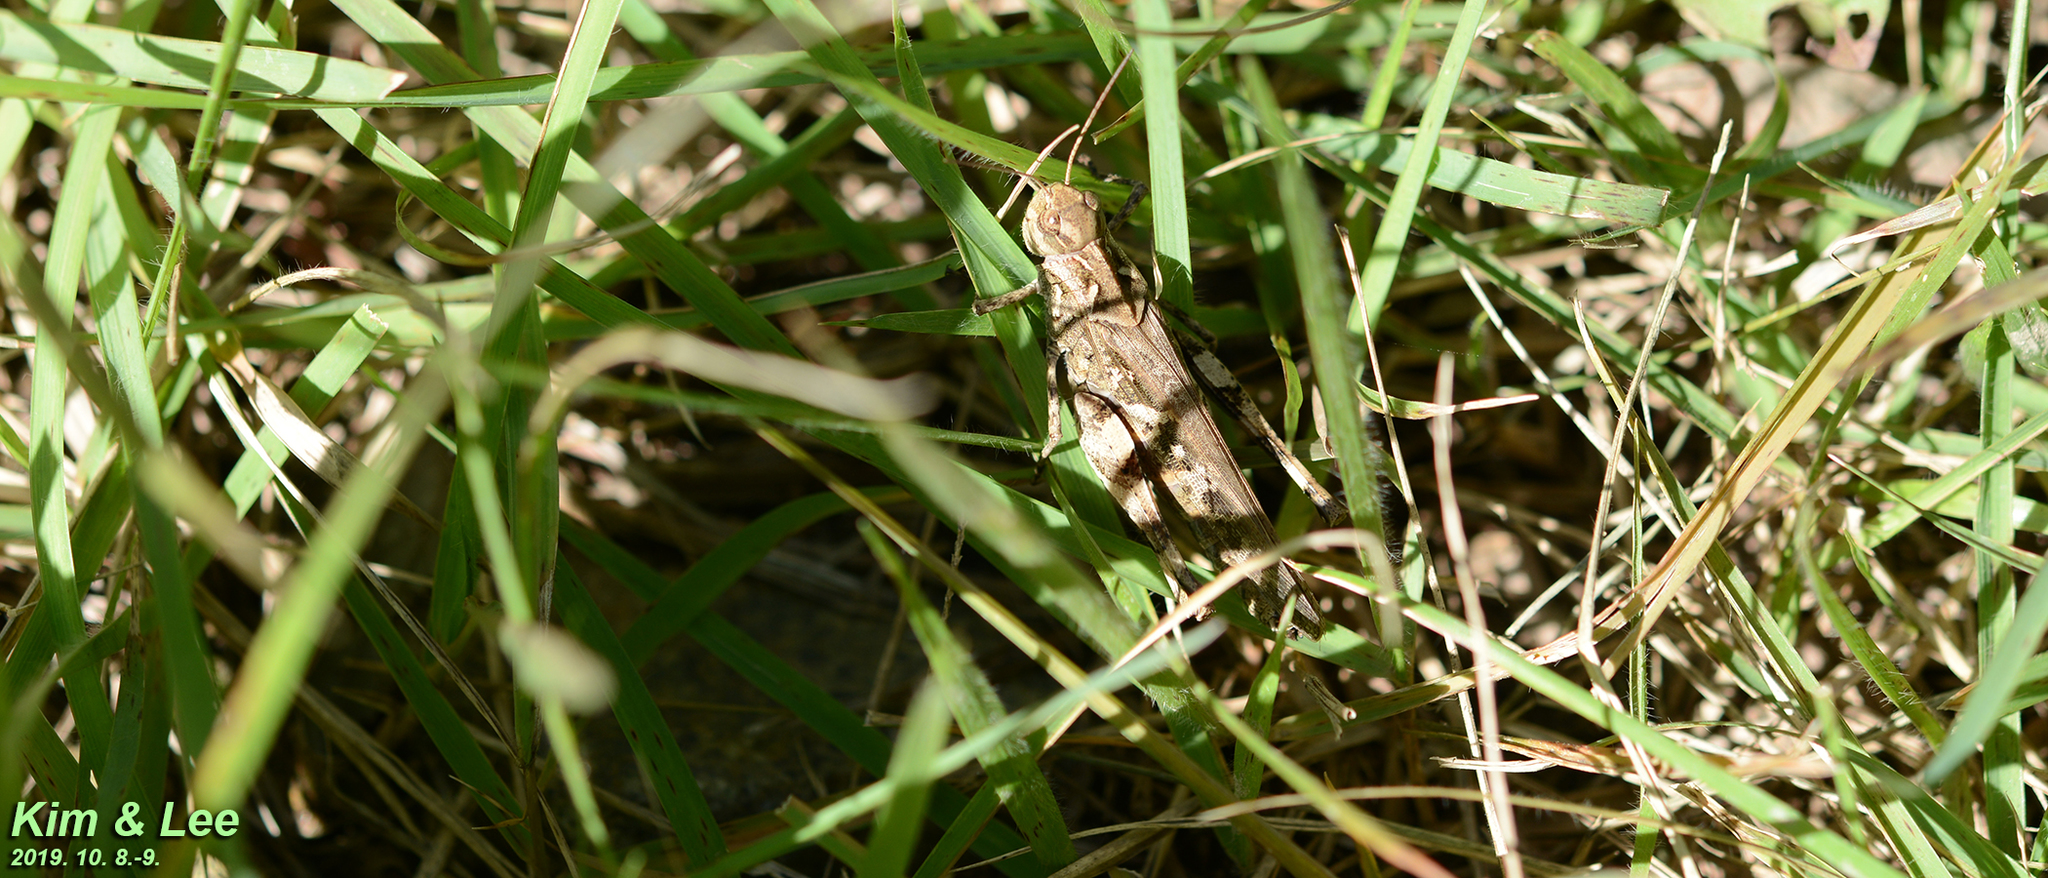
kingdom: Animalia
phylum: Arthropoda
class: Insecta
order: Orthoptera
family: Acrididae
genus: Oedaleus
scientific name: Oedaleus infernalis
